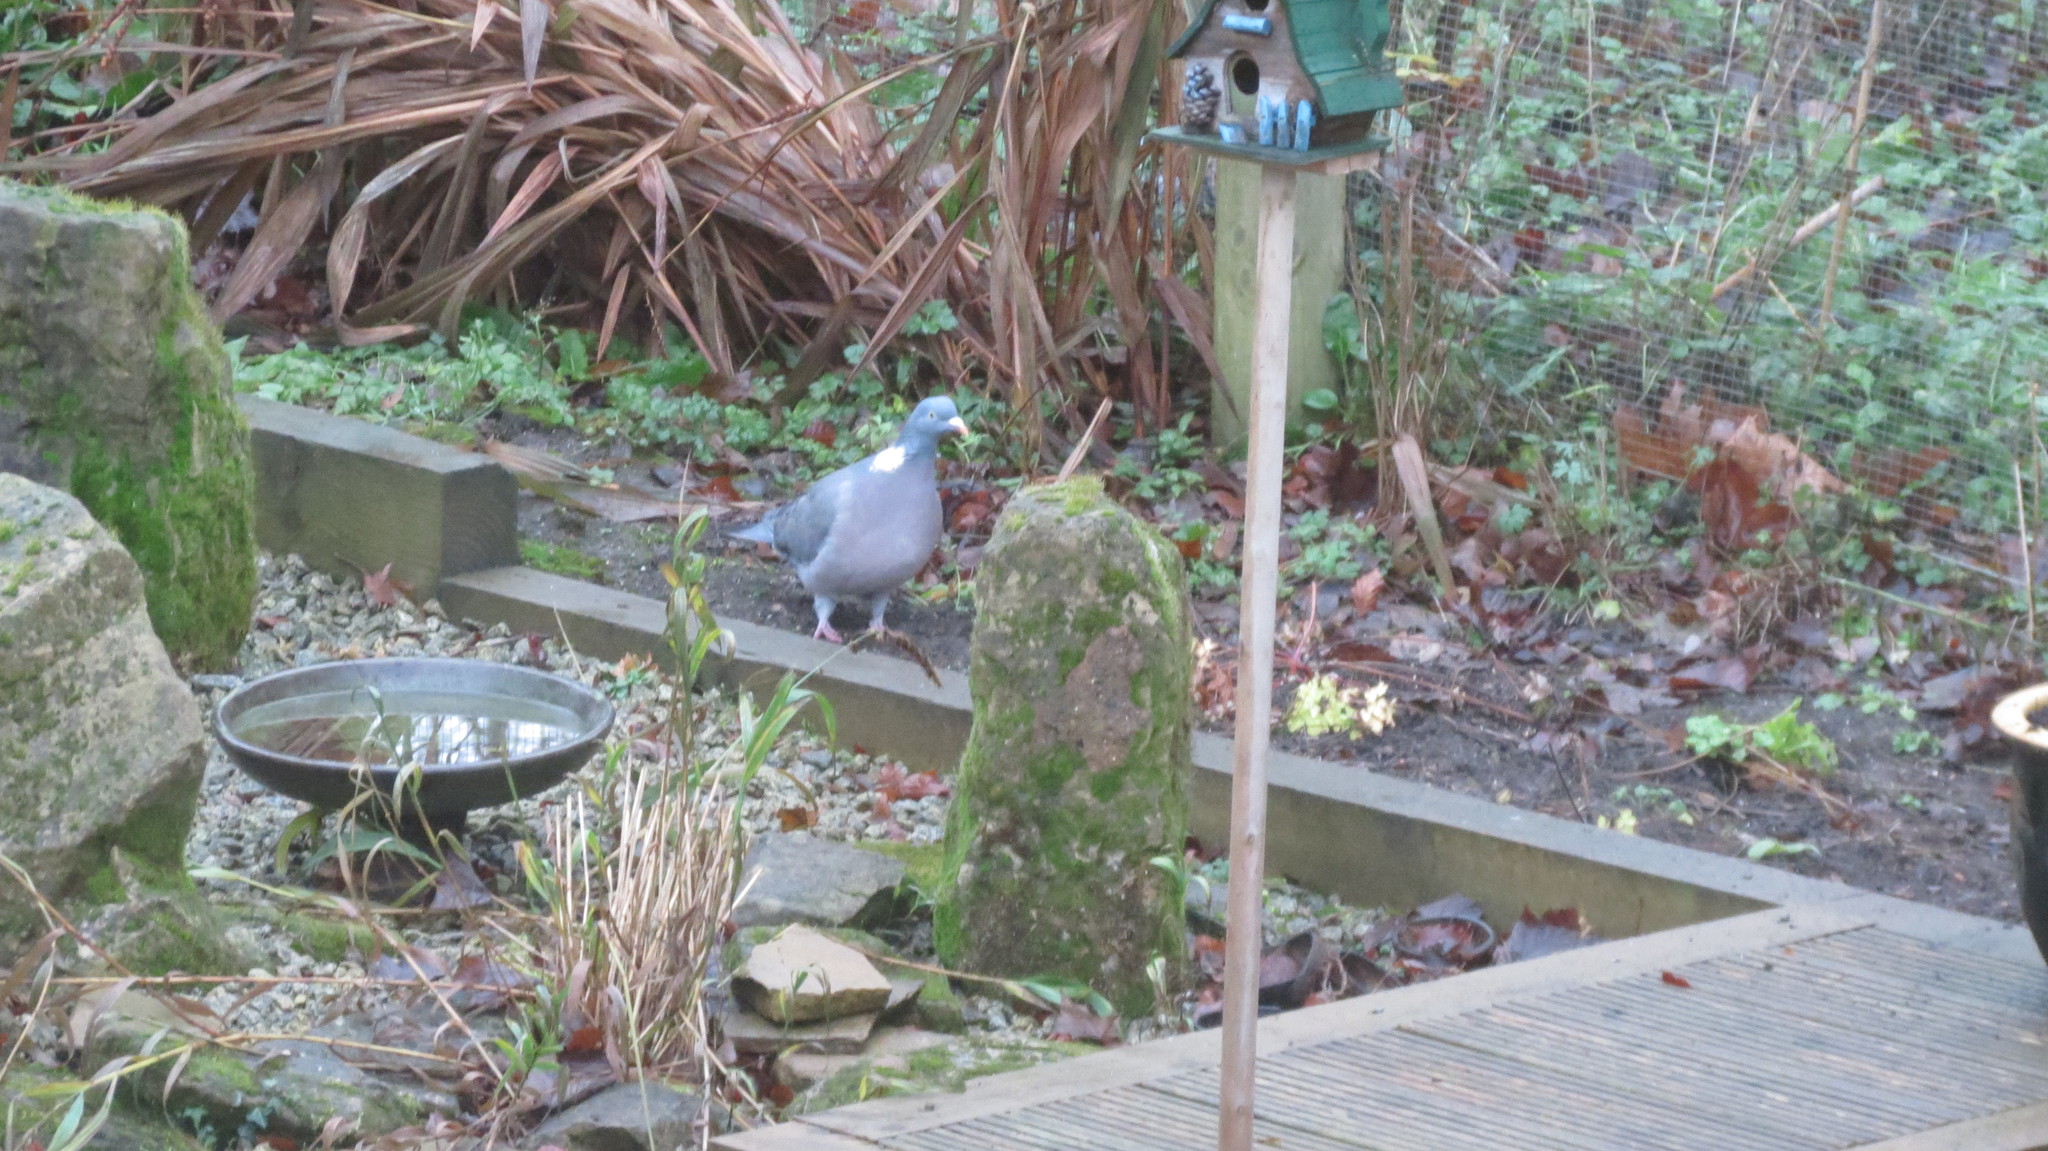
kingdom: Animalia
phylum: Chordata
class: Aves
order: Columbiformes
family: Columbidae
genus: Columba
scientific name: Columba palumbus
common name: Common wood pigeon
